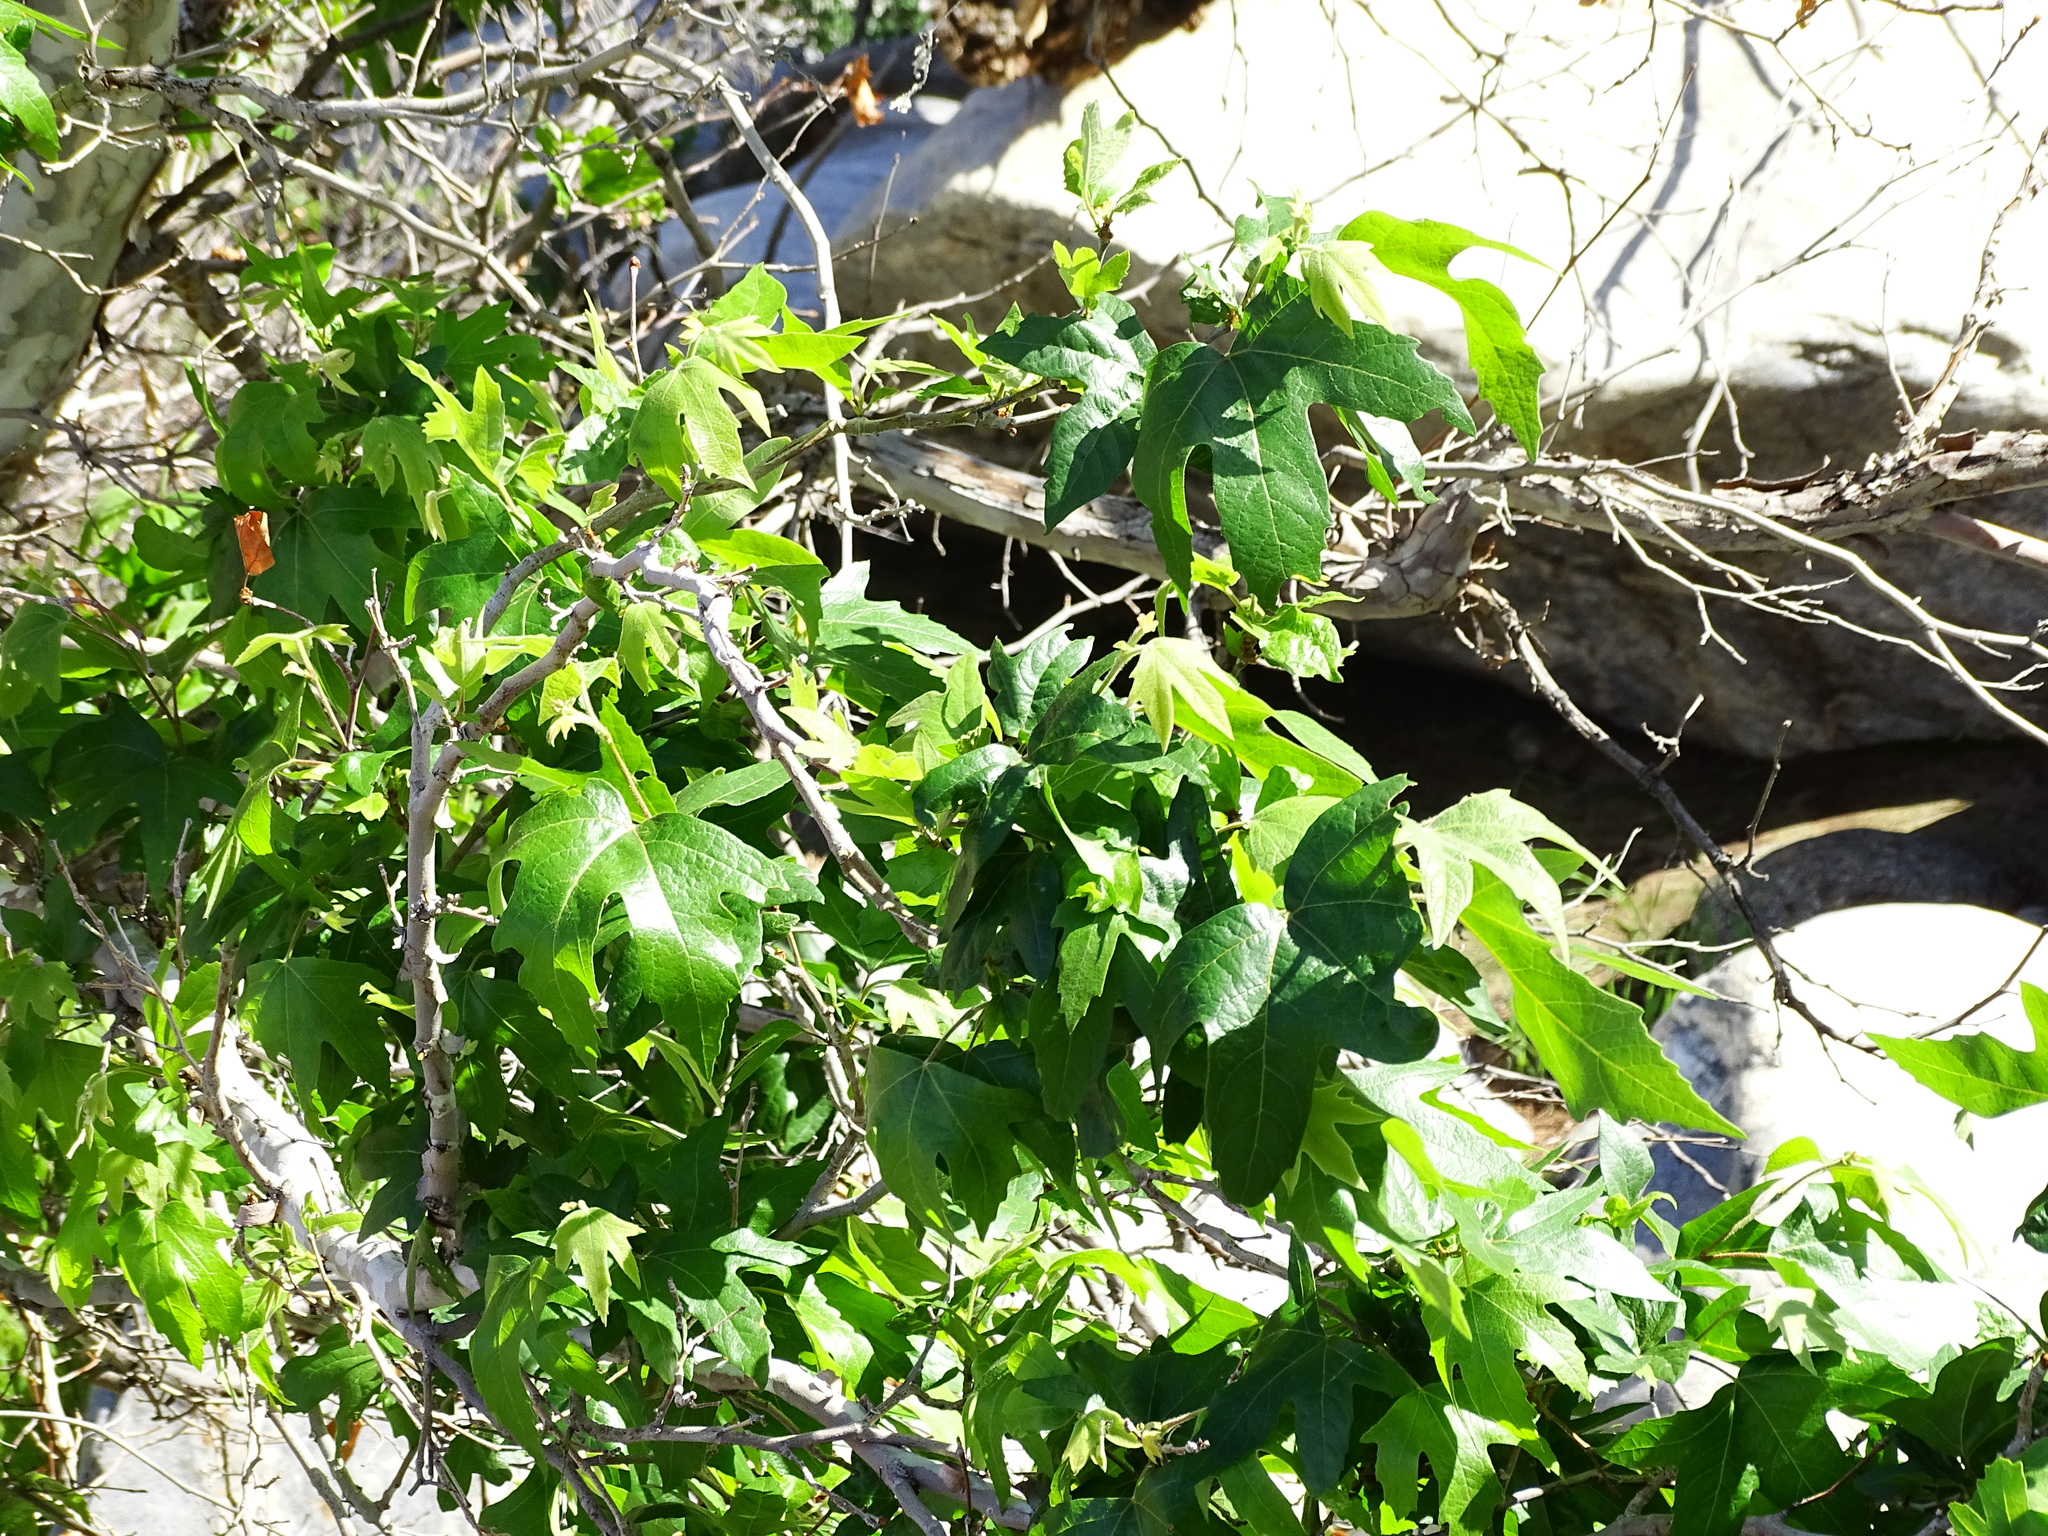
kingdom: Plantae
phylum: Tracheophyta
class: Magnoliopsida
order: Proteales
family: Platanaceae
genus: Platanus
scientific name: Platanus racemosa
